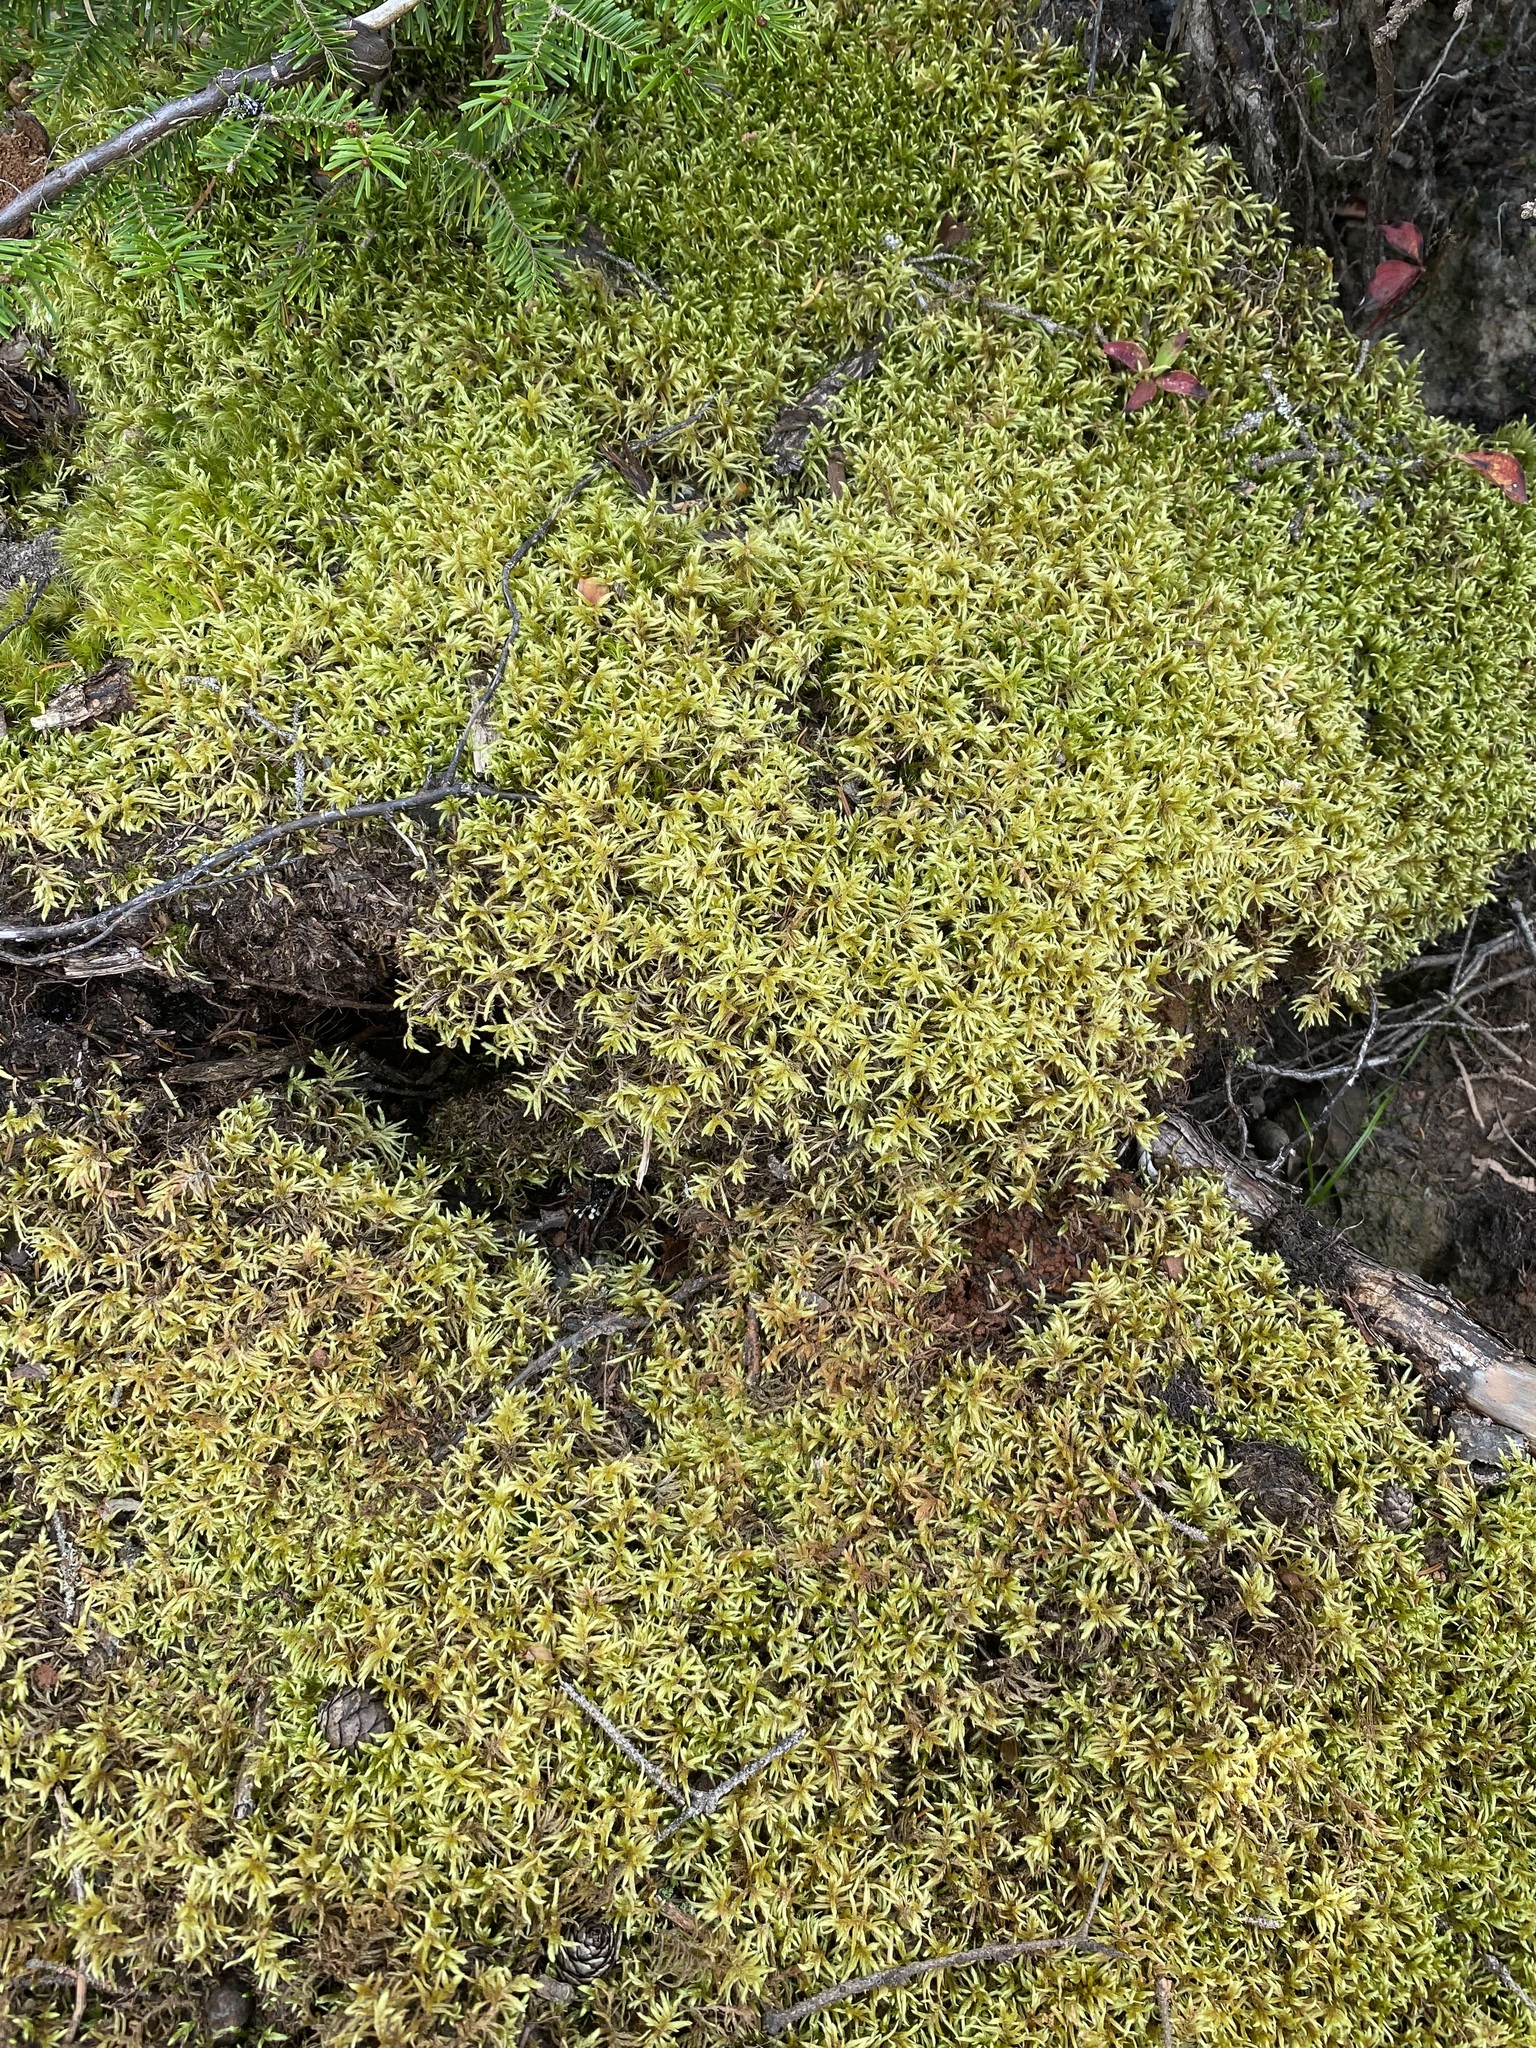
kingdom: Plantae
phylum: Bryophyta
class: Bryopsida
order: Hypnales
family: Hylocomiaceae
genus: Pleurozium
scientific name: Pleurozium schreberi
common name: Red-stemmed feather moss
